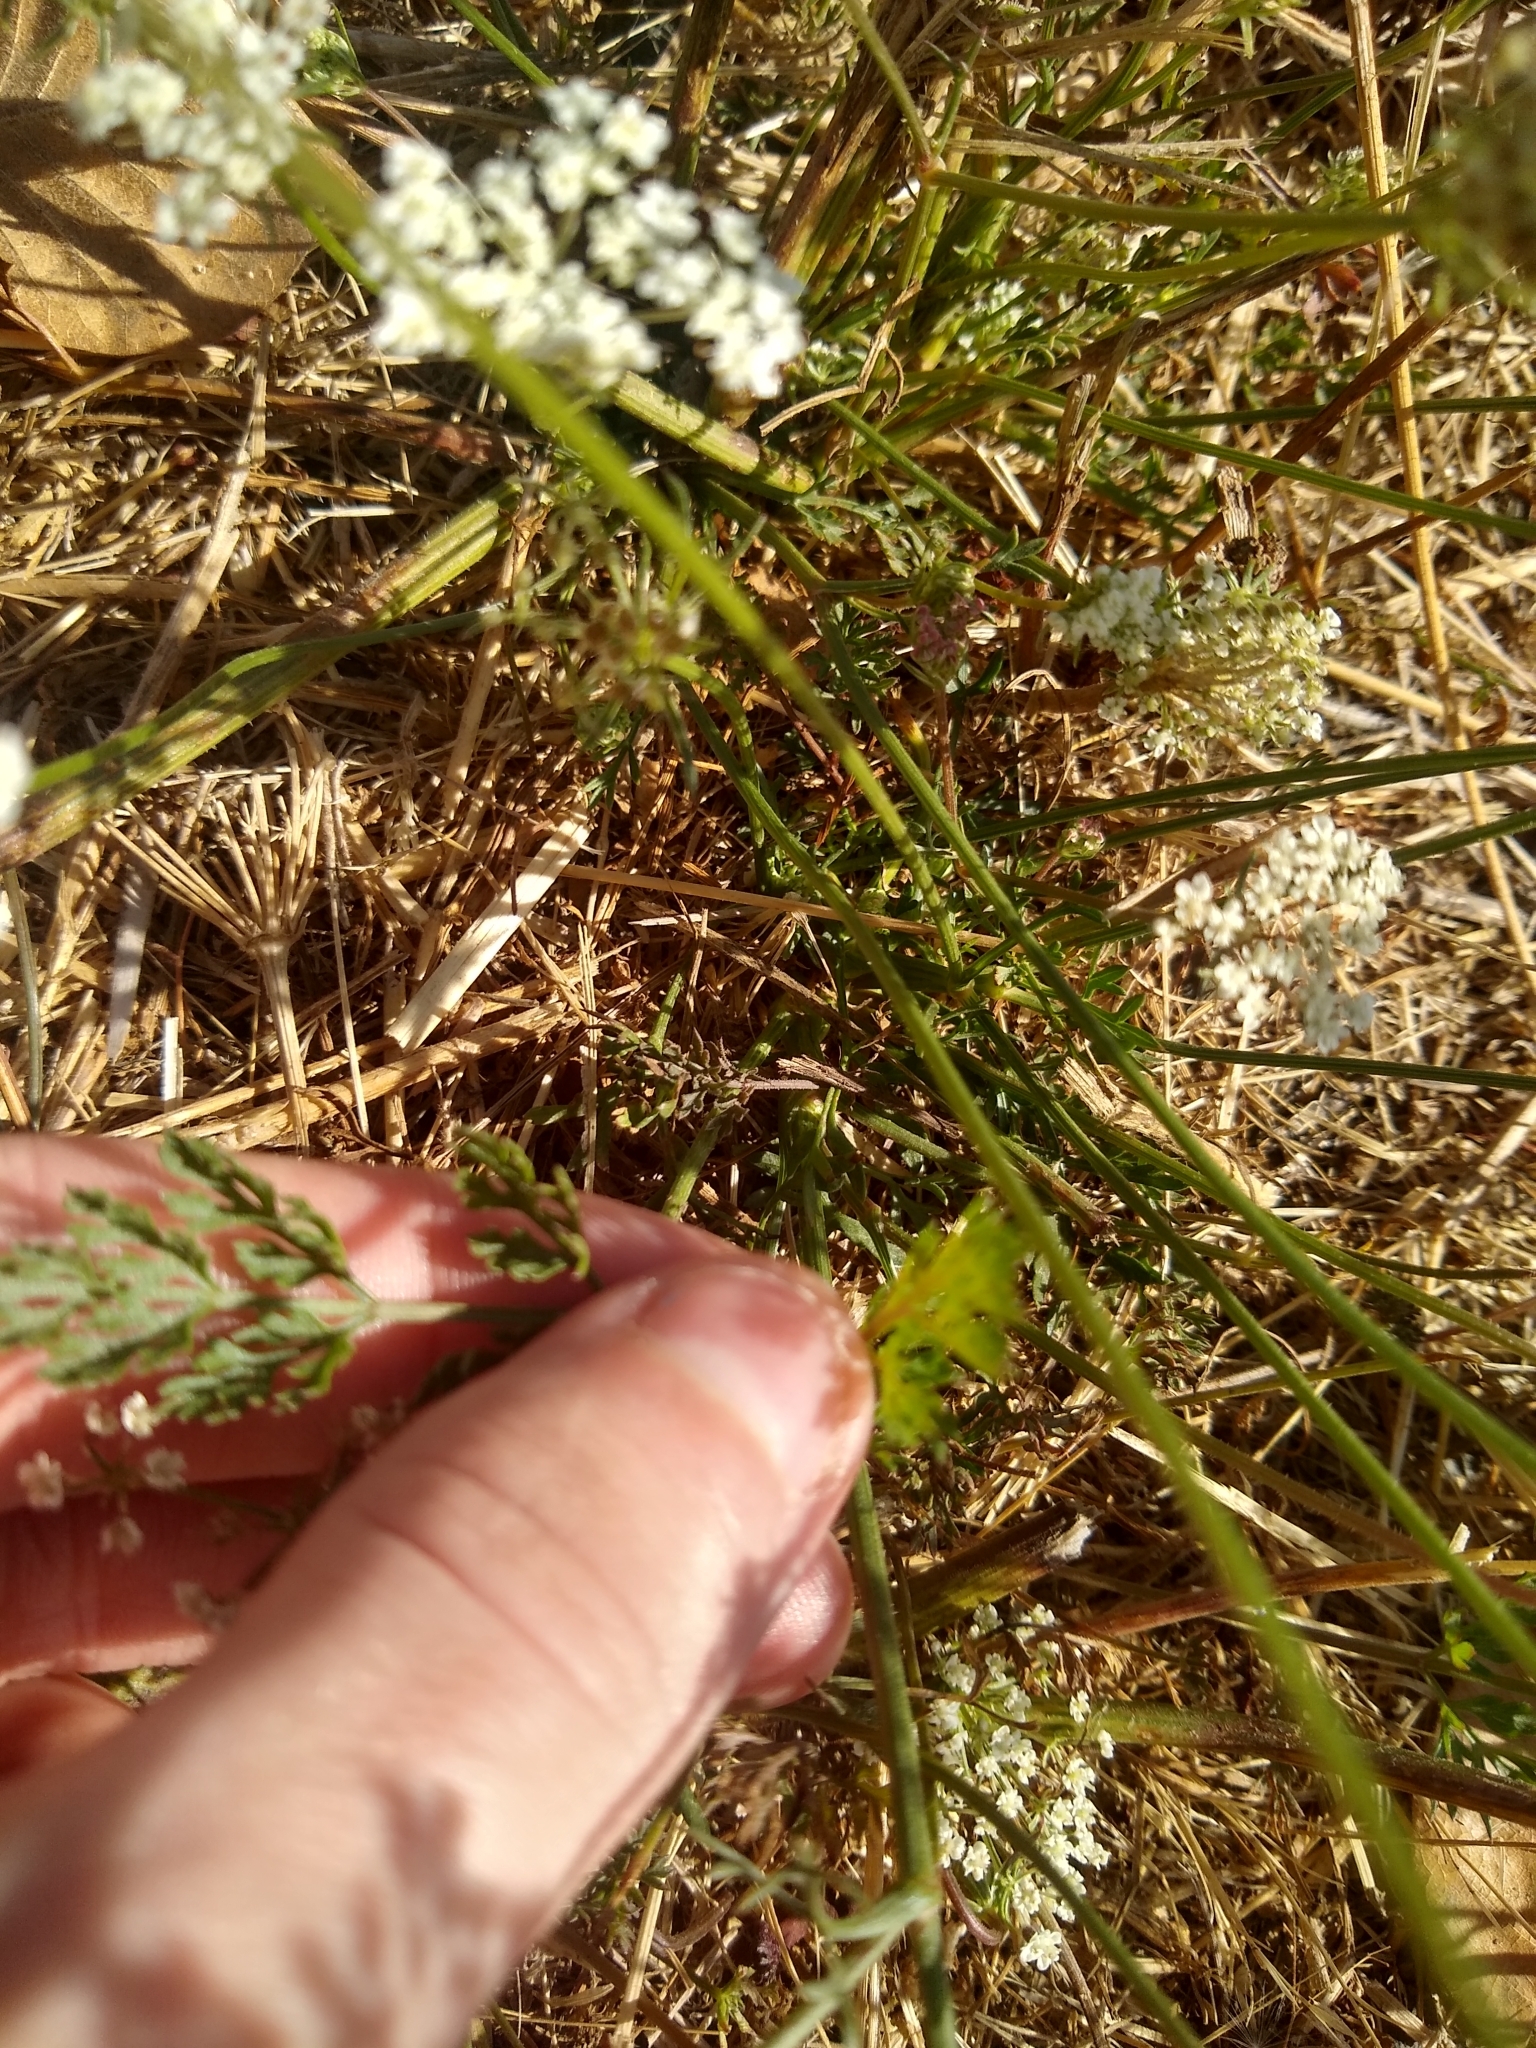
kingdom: Plantae
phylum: Tracheophyta
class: Magnoliopsida
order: Apiales
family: Apiaceae
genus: Daucus
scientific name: Daucus carota
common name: Wild carrot
